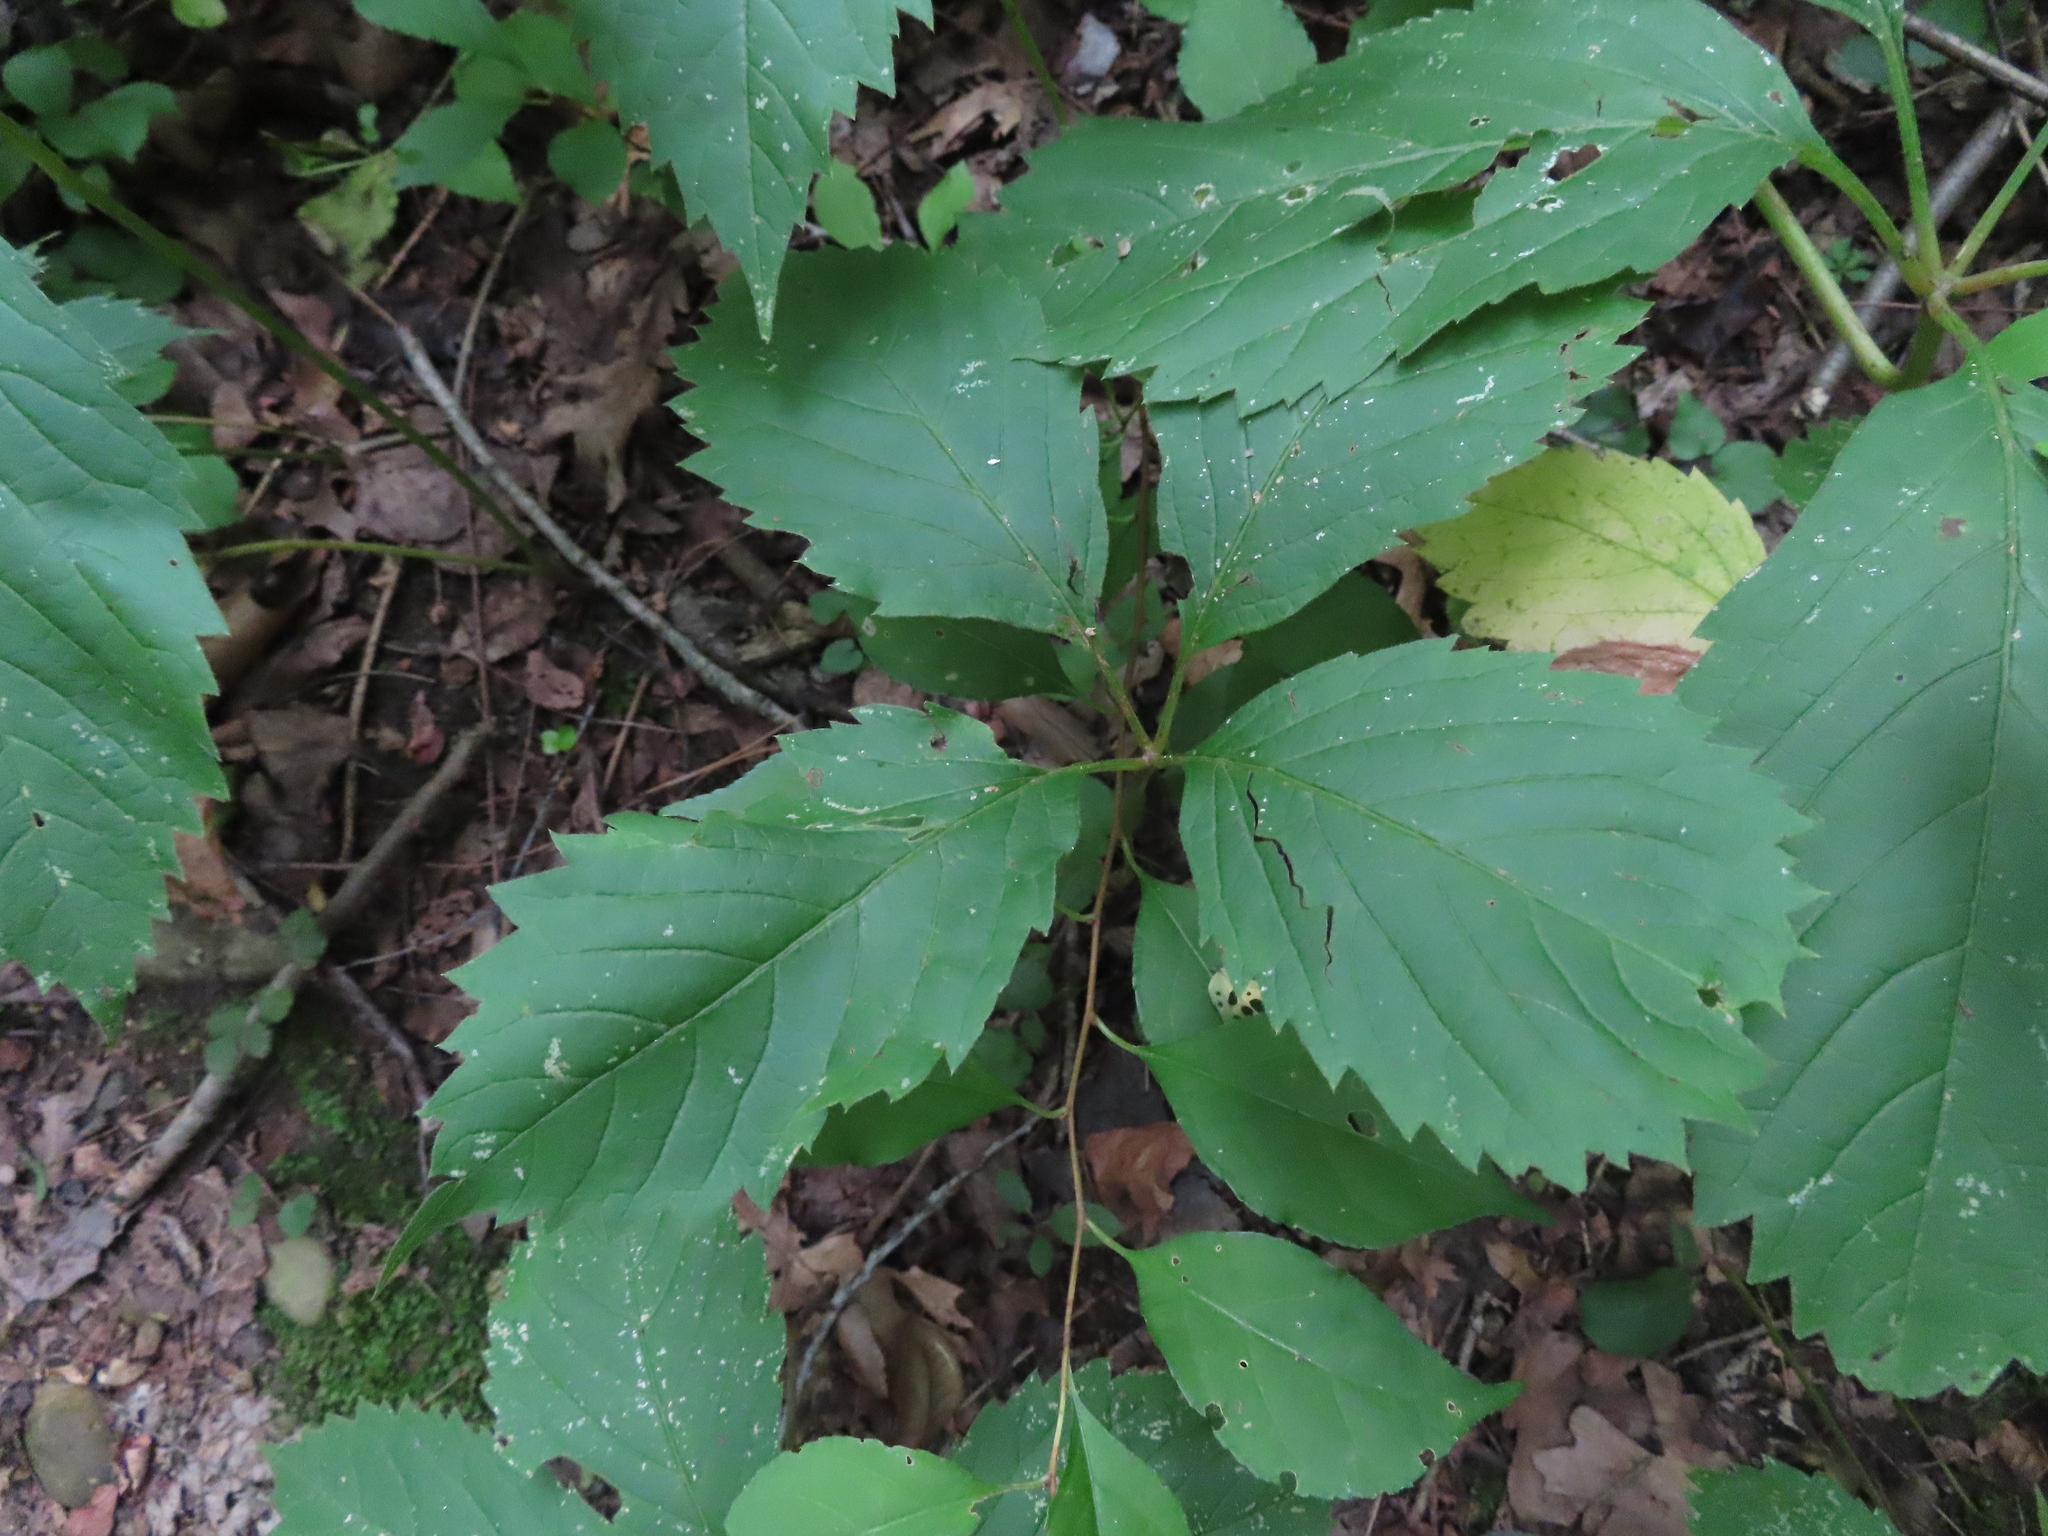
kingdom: Plantae
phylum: Tracheophyta
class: Magnoliopsida
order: Vitales
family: Vitaceae
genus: Parthenocissus
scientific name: Parthenocissus inserta
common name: False virginia-creeper
